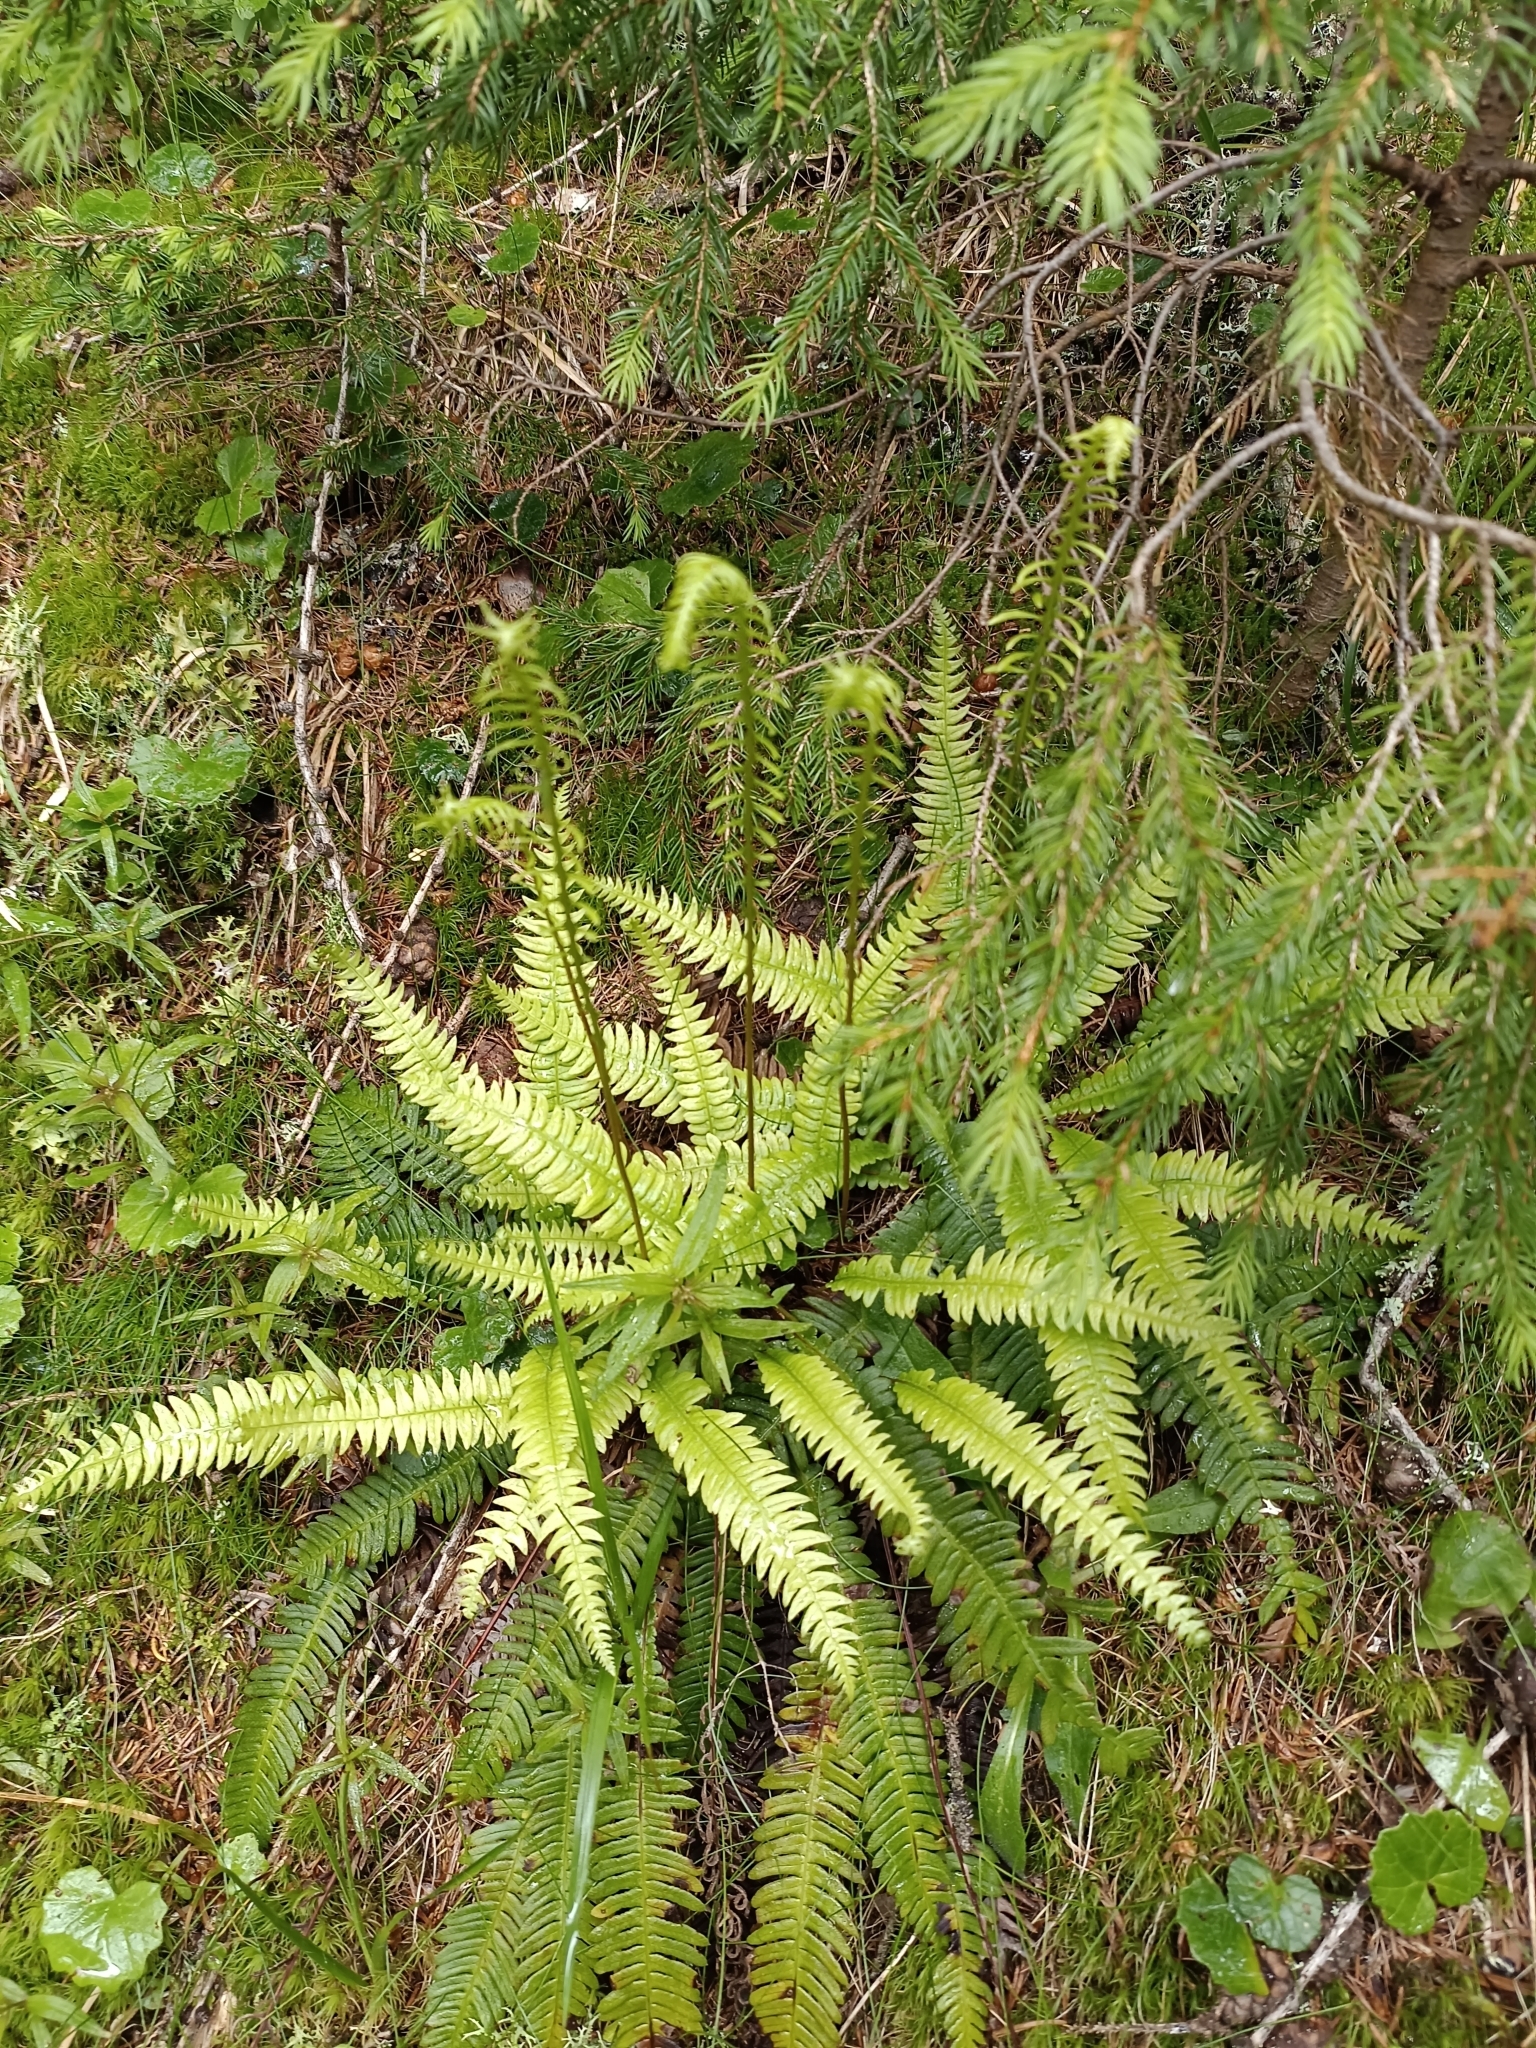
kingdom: Plantae
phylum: Tracheophyta
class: Polypodiopsida
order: Polypodiales
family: Blechnaceae
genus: Struthiopteris
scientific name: Struthiopteris spicant
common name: Deer fern
